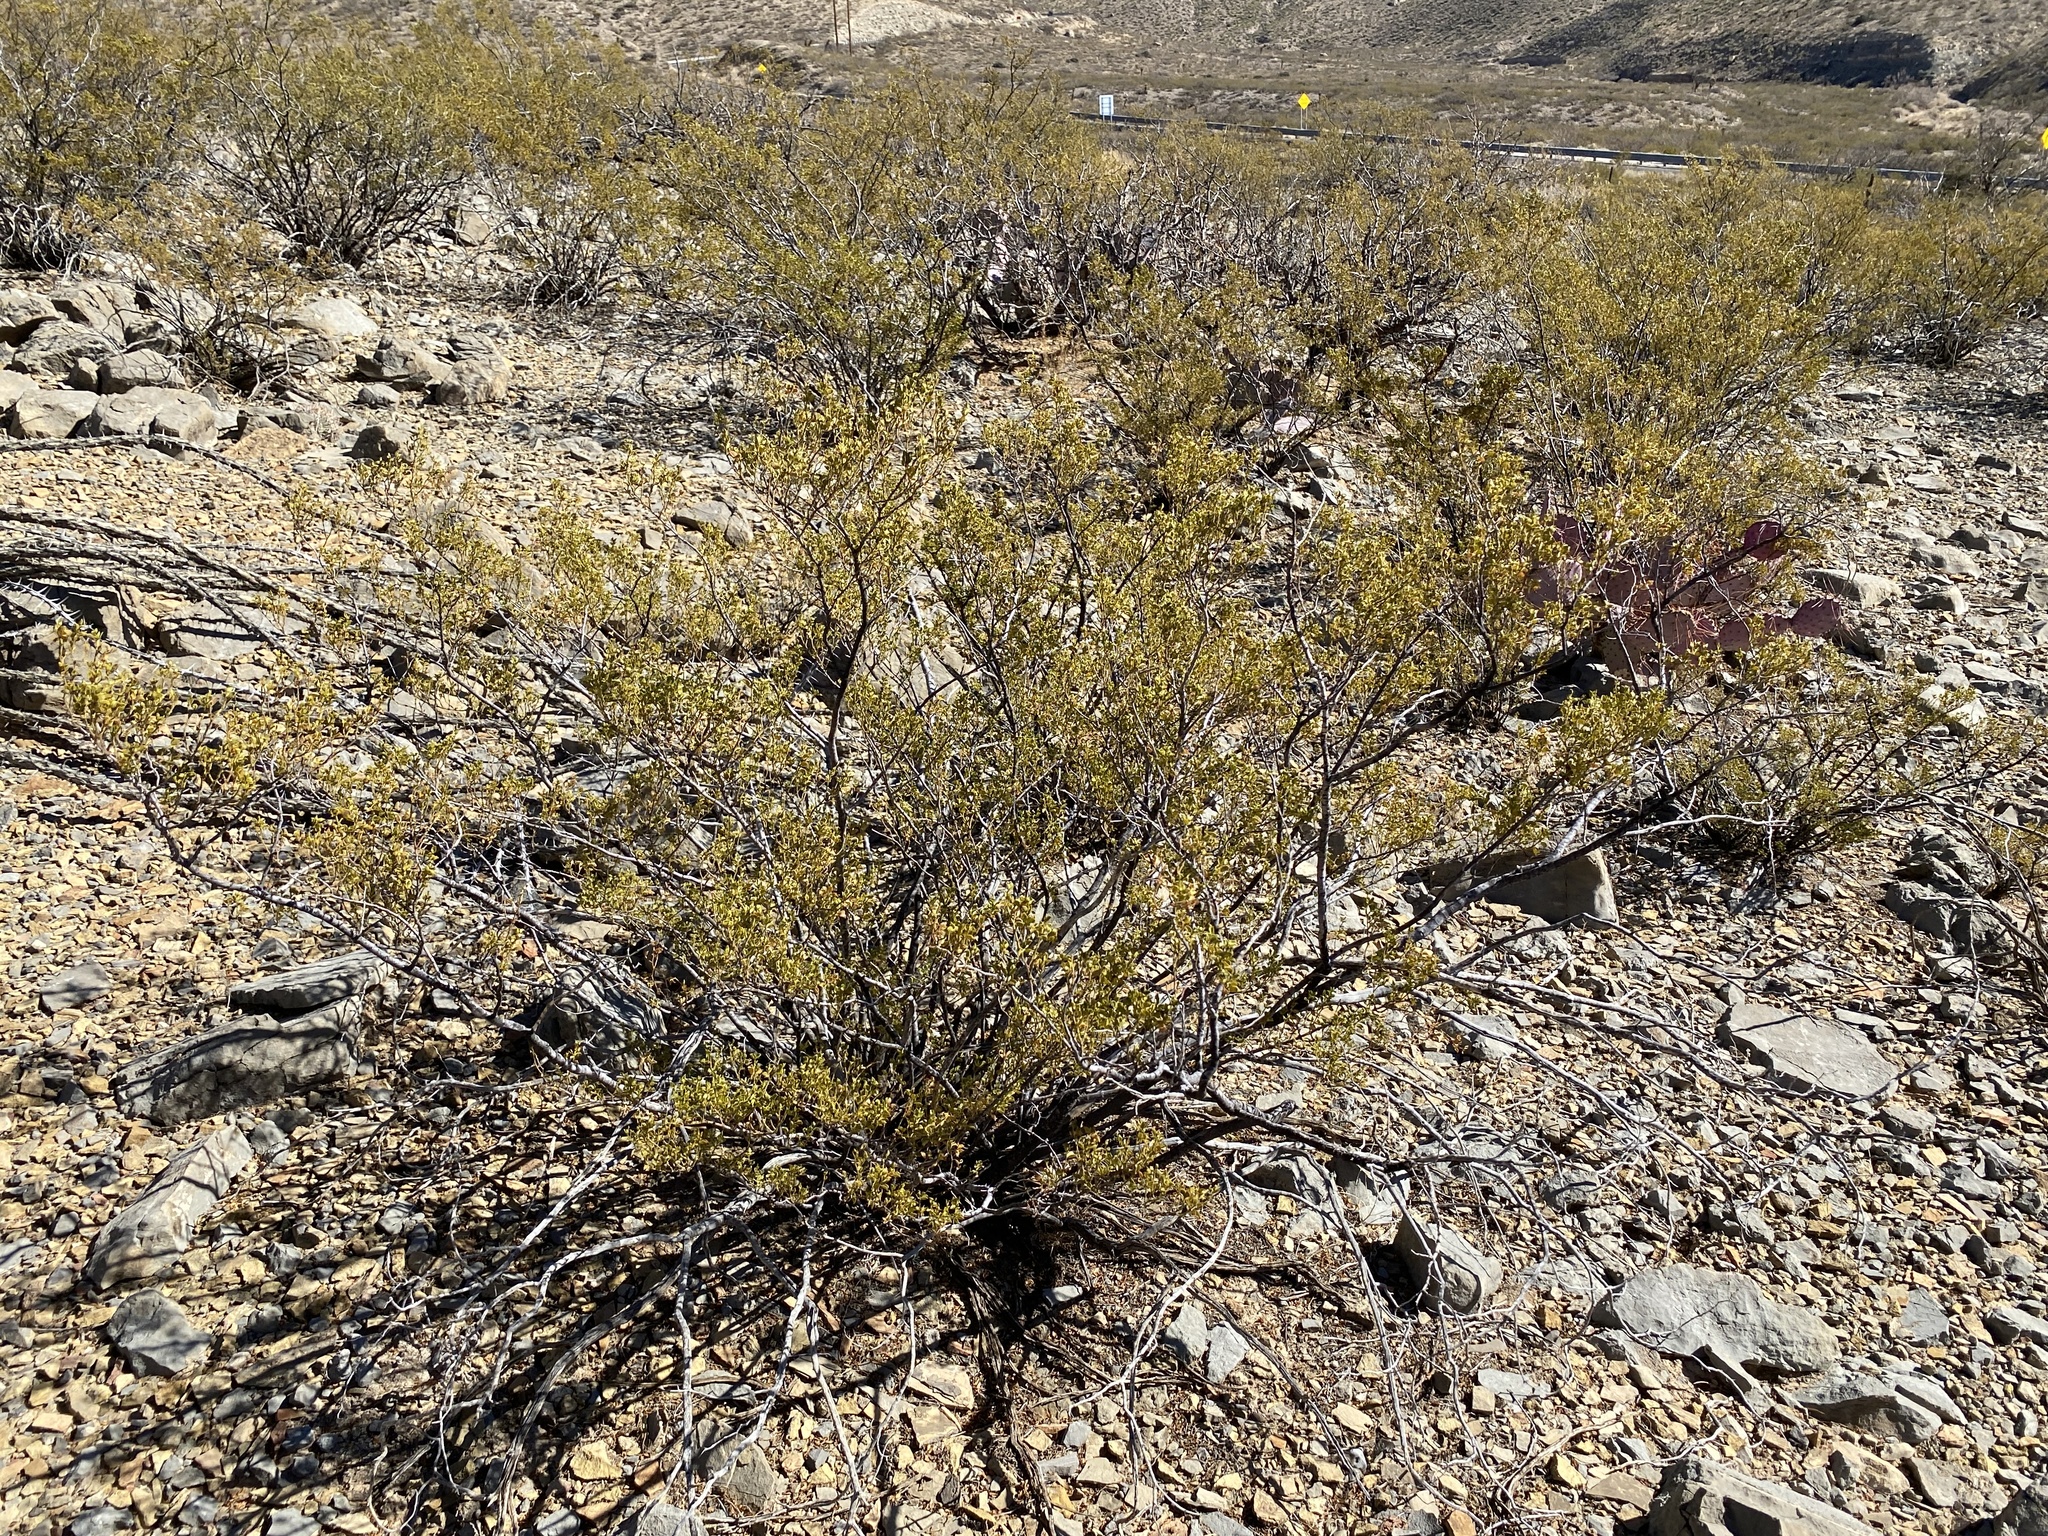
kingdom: Plantae
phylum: Tracheophyta
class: Magnoliopsida
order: Zygophyllales
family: Zygophyllaceae
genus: Larrea
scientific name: Larrea tridentata
